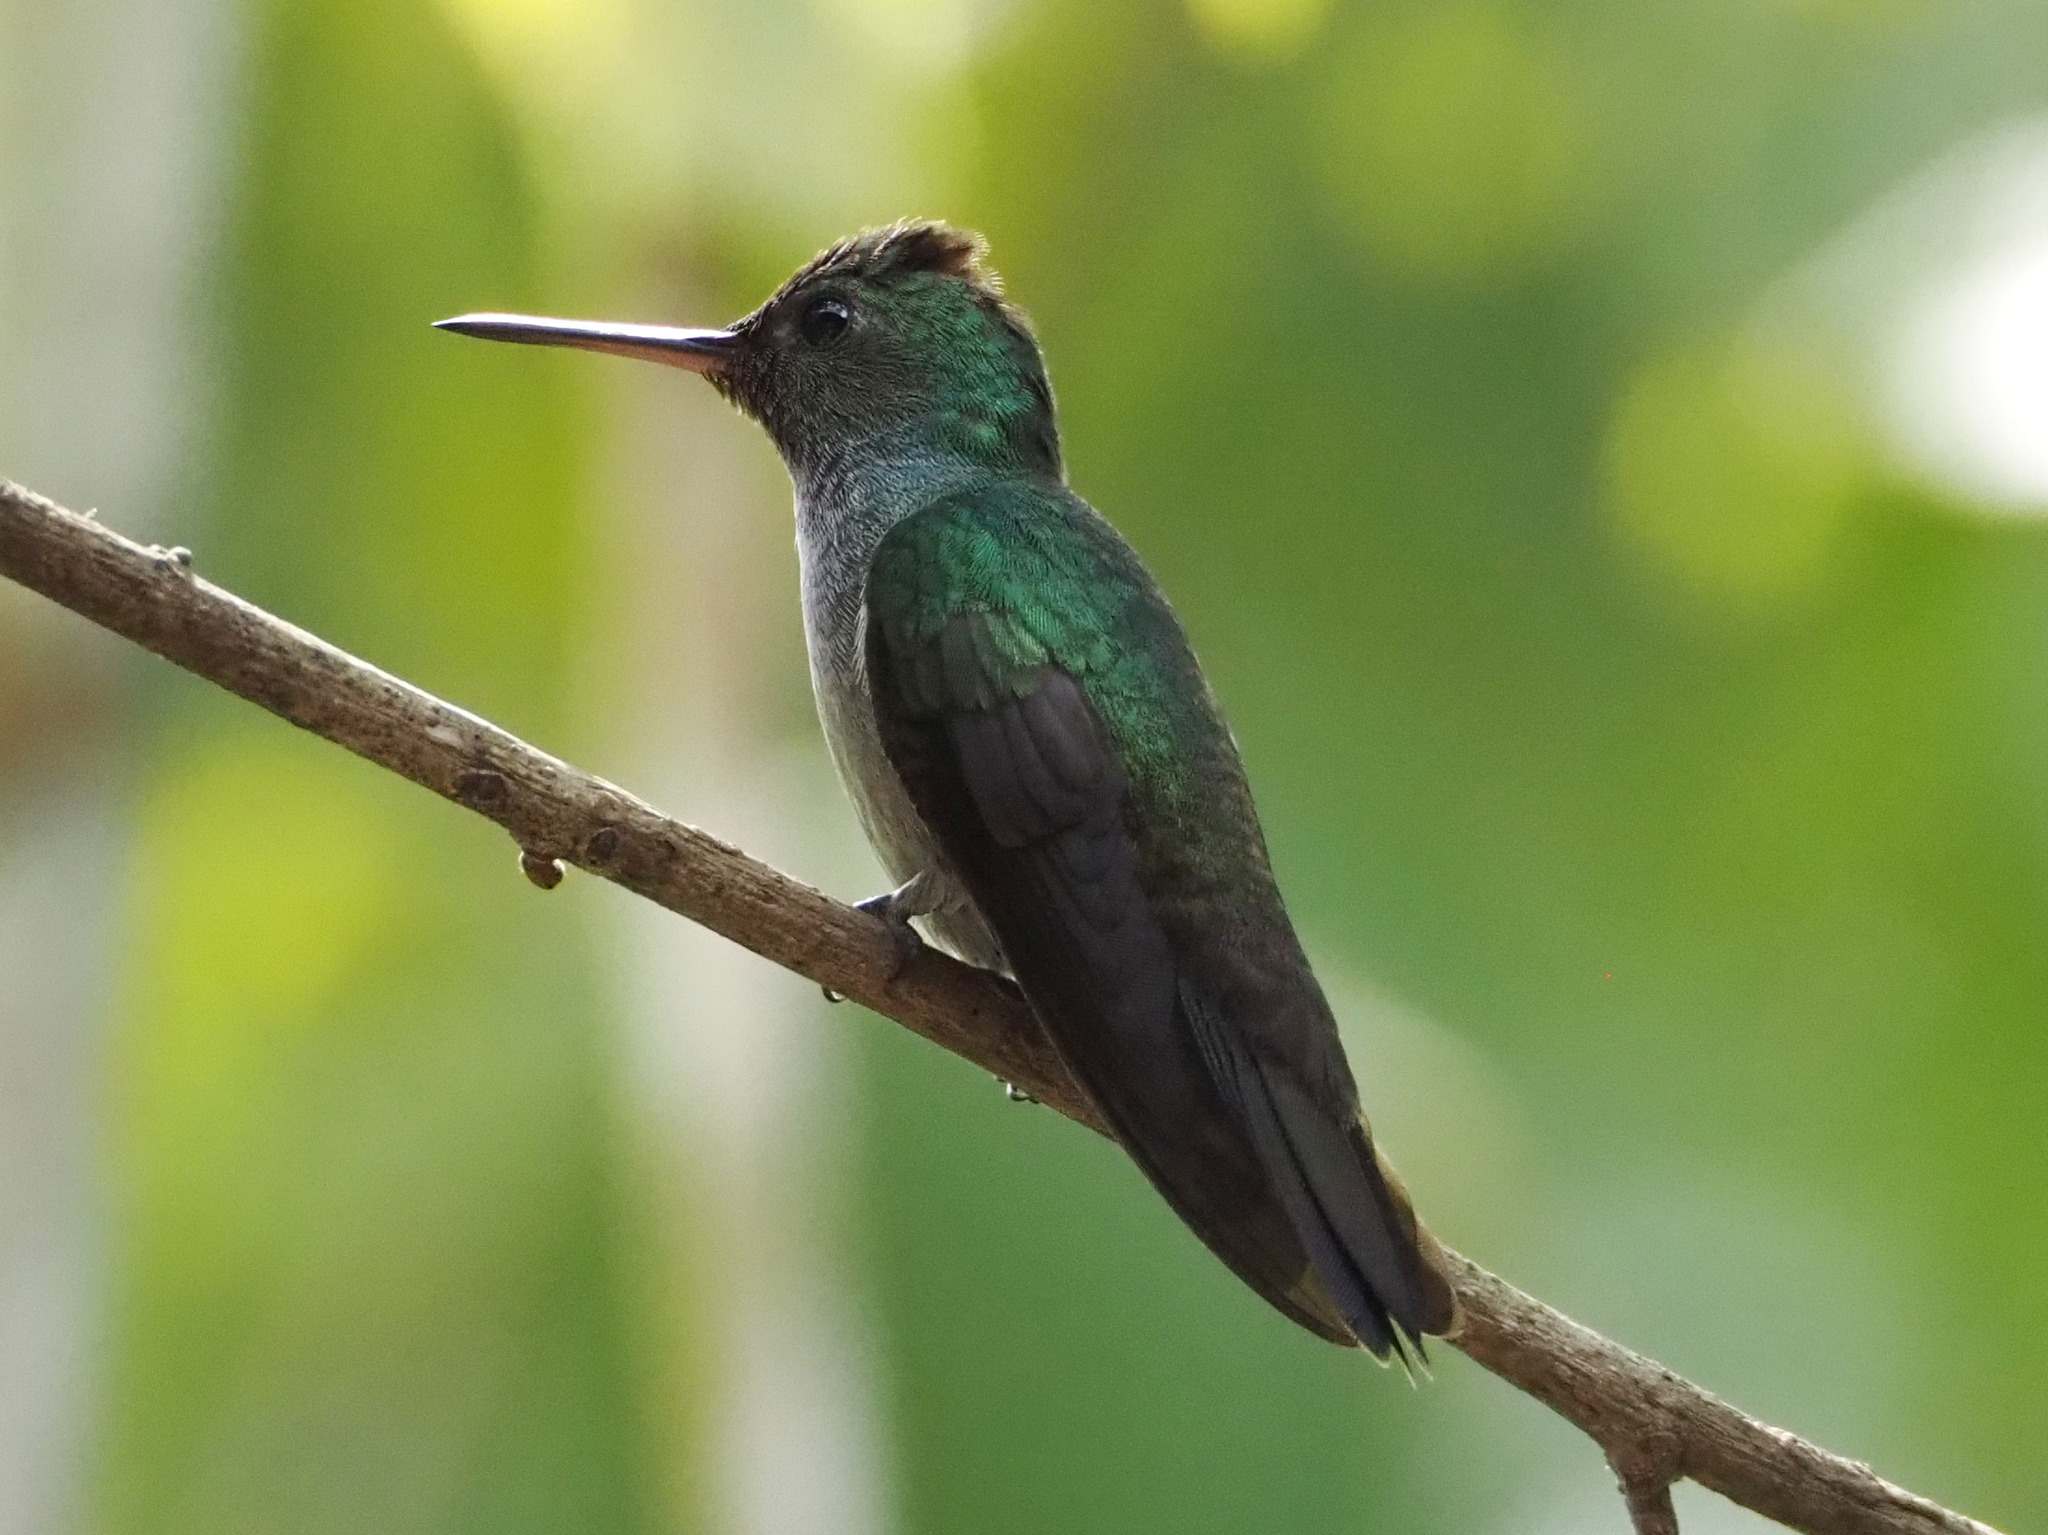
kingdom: Animalia
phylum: Chordata
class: Aves
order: Apodiformes
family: Trochilidae
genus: Polyerata
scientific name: Polyerata amabilis
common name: Blue-chested hummingbird
